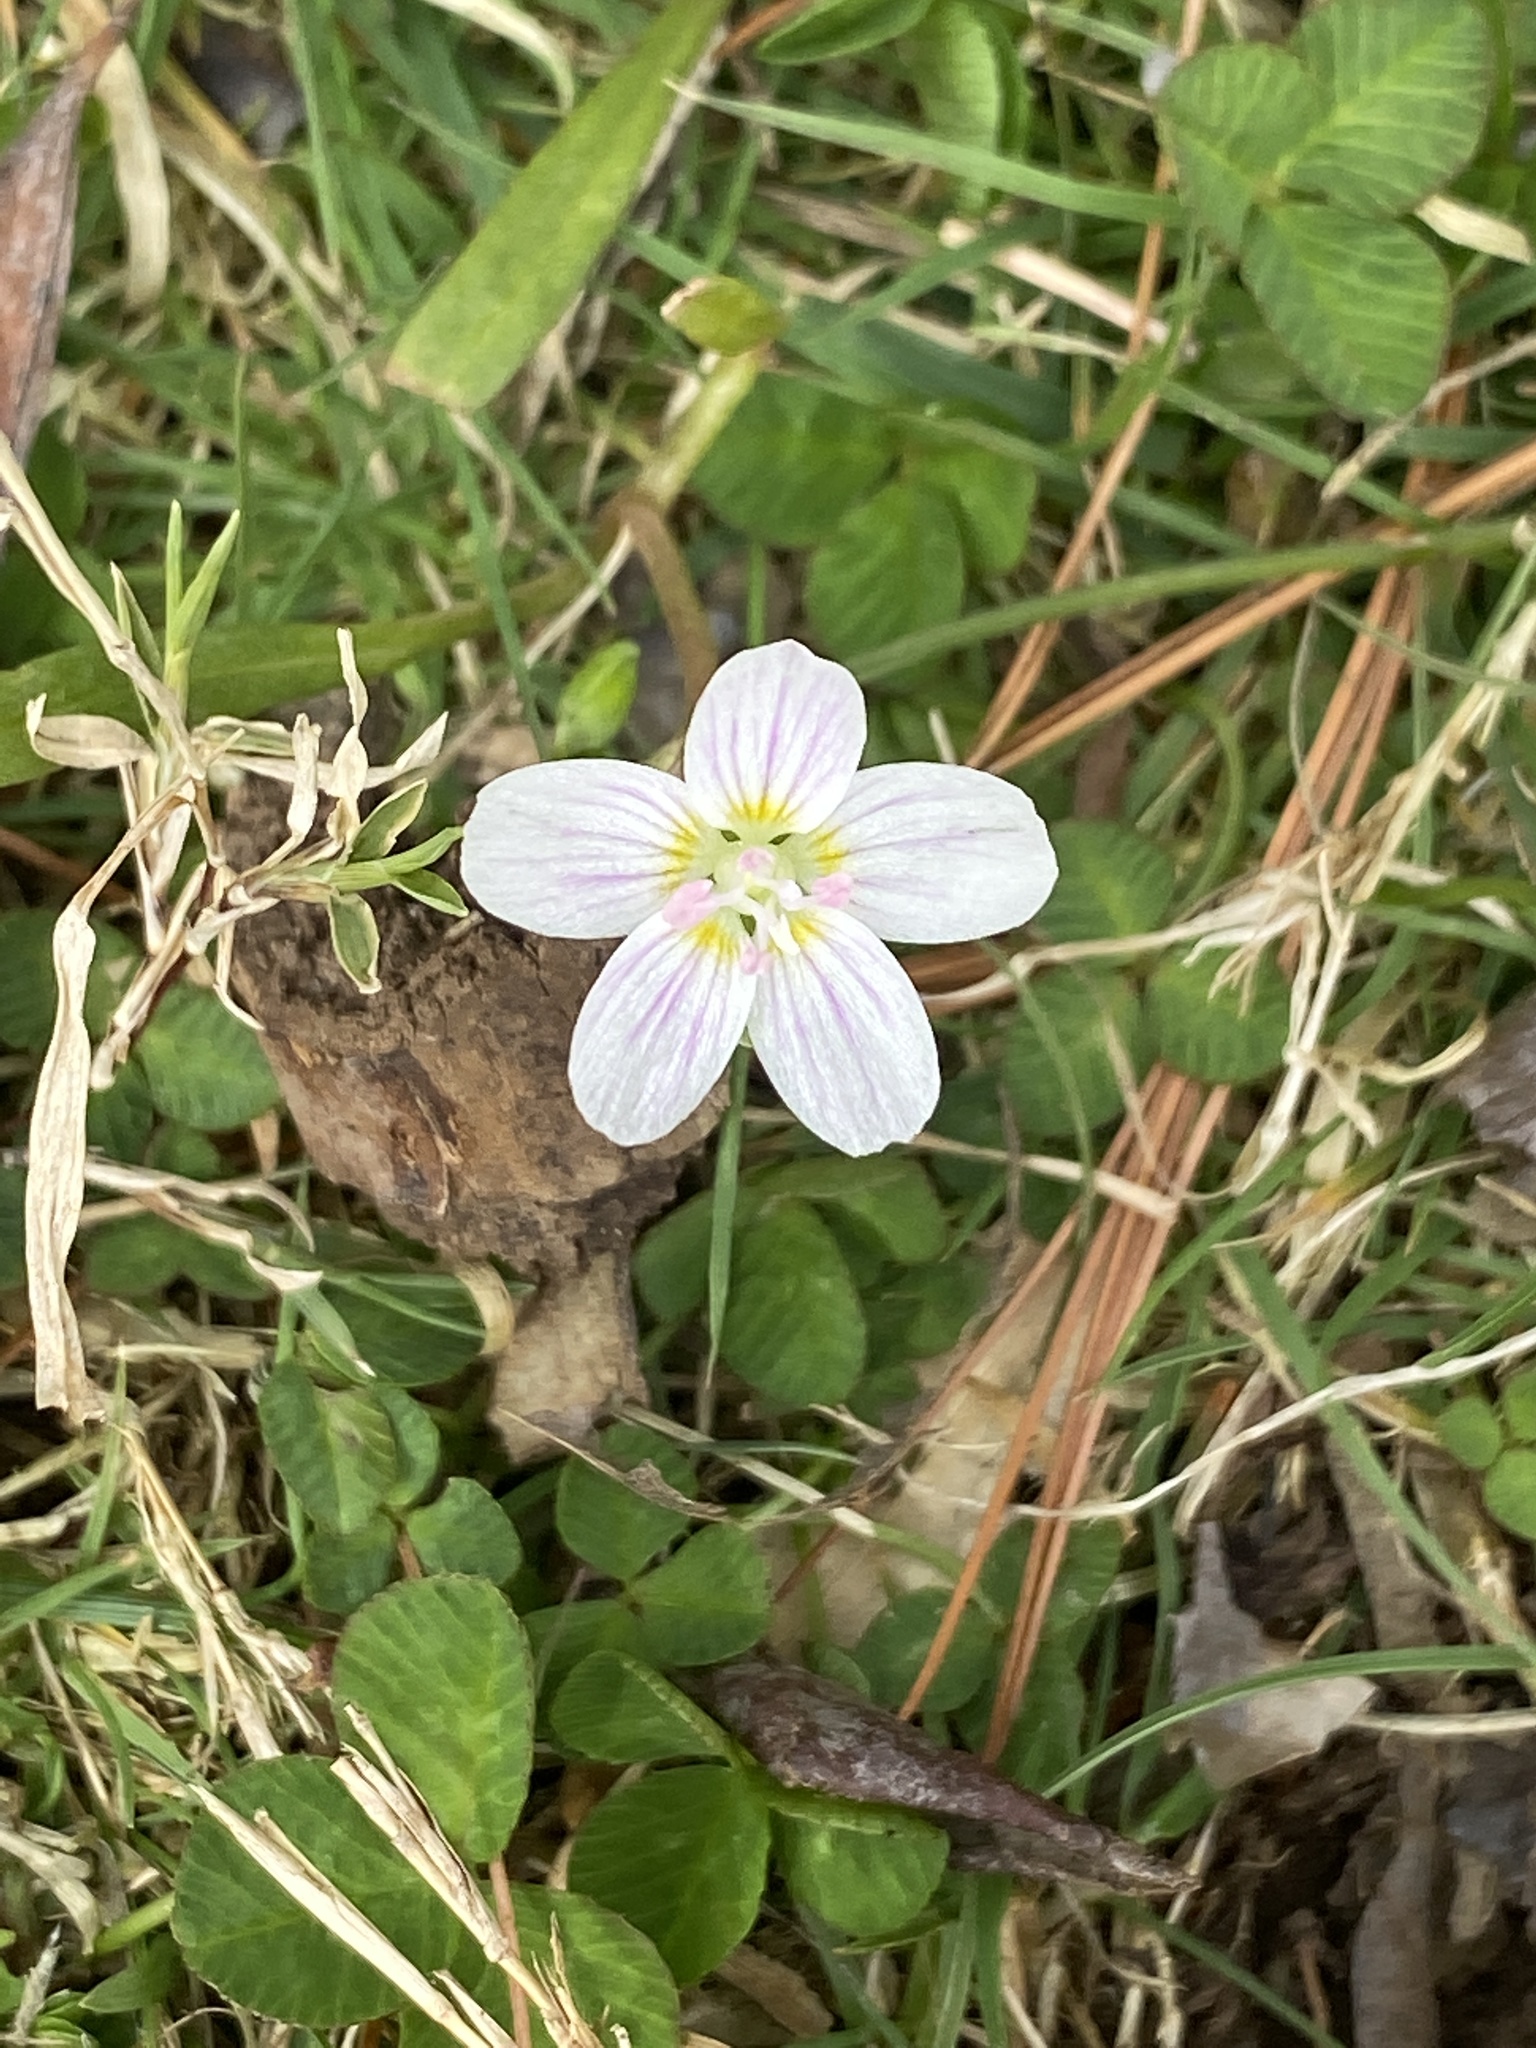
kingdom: Plantae
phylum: Tracheophyta
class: Magnoliopsida
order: Caryophyllales
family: Montiaceae
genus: Claytonia
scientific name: Claytonia virginica
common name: Virginia springbeauty
